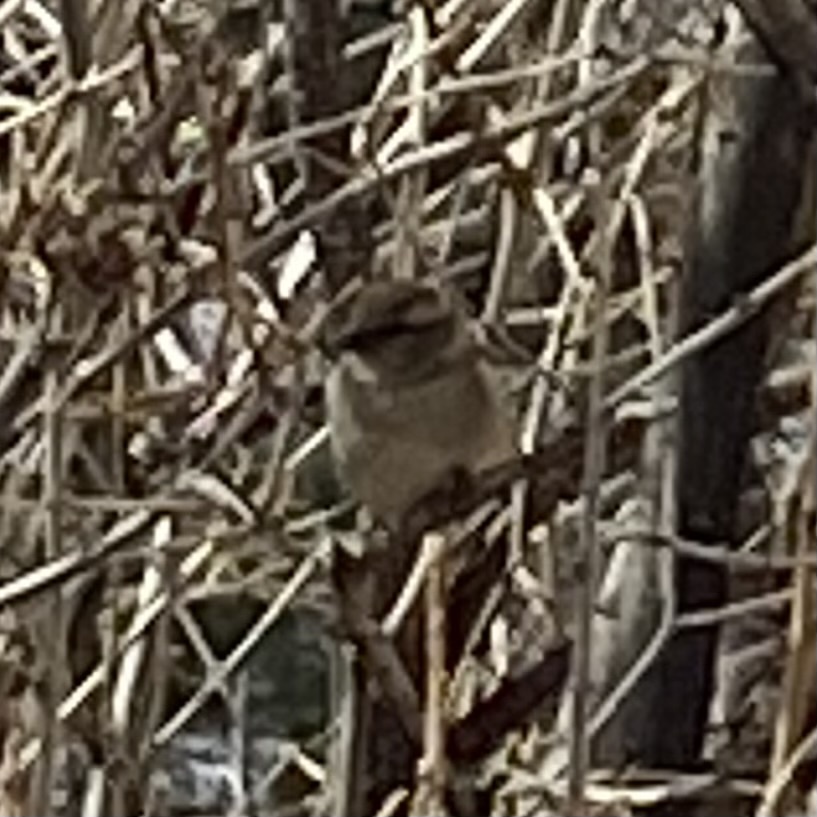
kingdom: Animalia
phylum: Chordata
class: Aves
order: Passeriformes
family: Passeridae
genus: Passer
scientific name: Passer domesticus
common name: House sparrow
